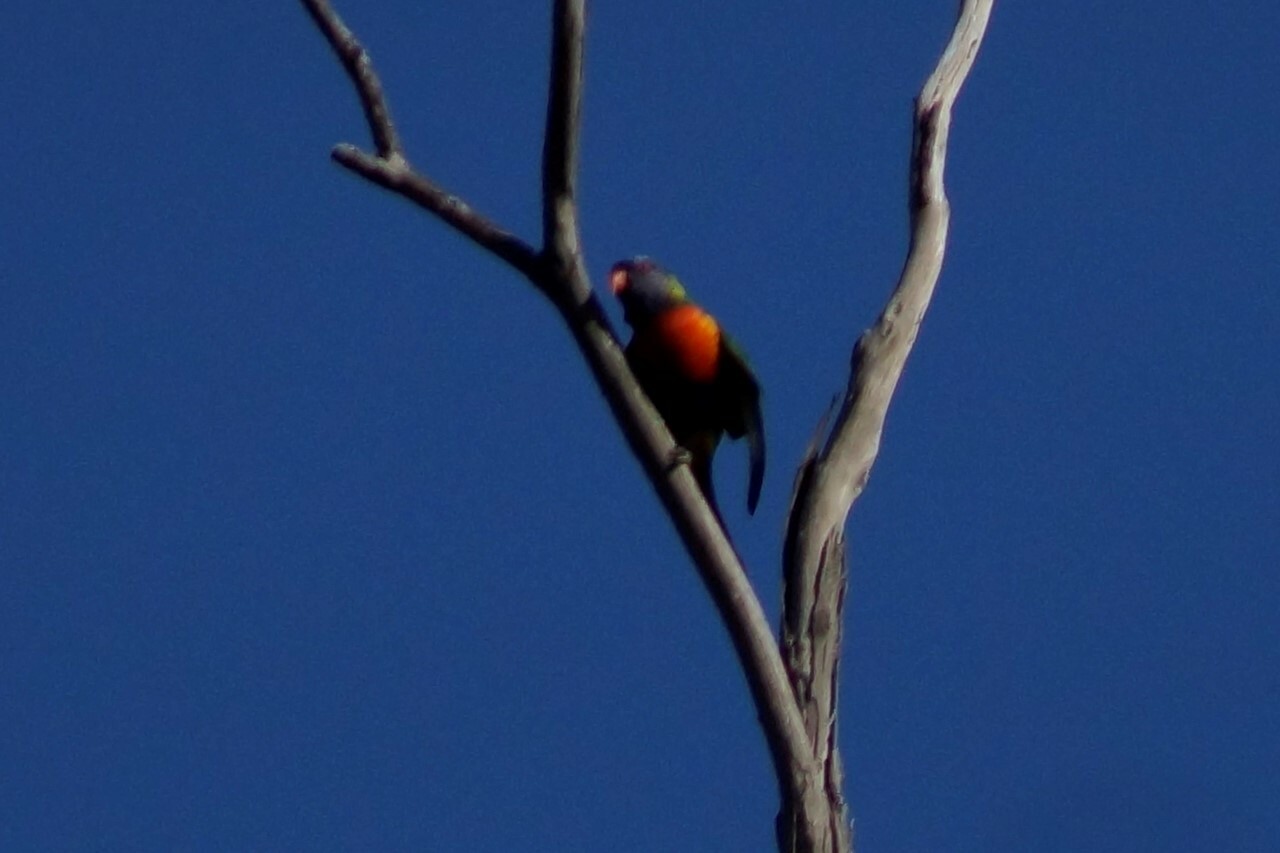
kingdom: Animalia
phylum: Chordata
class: Aves
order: Psittaciformes
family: Psittacidae
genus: Trichoglossus
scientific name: Trichoglossus haematodus
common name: Coconut lorikeet
